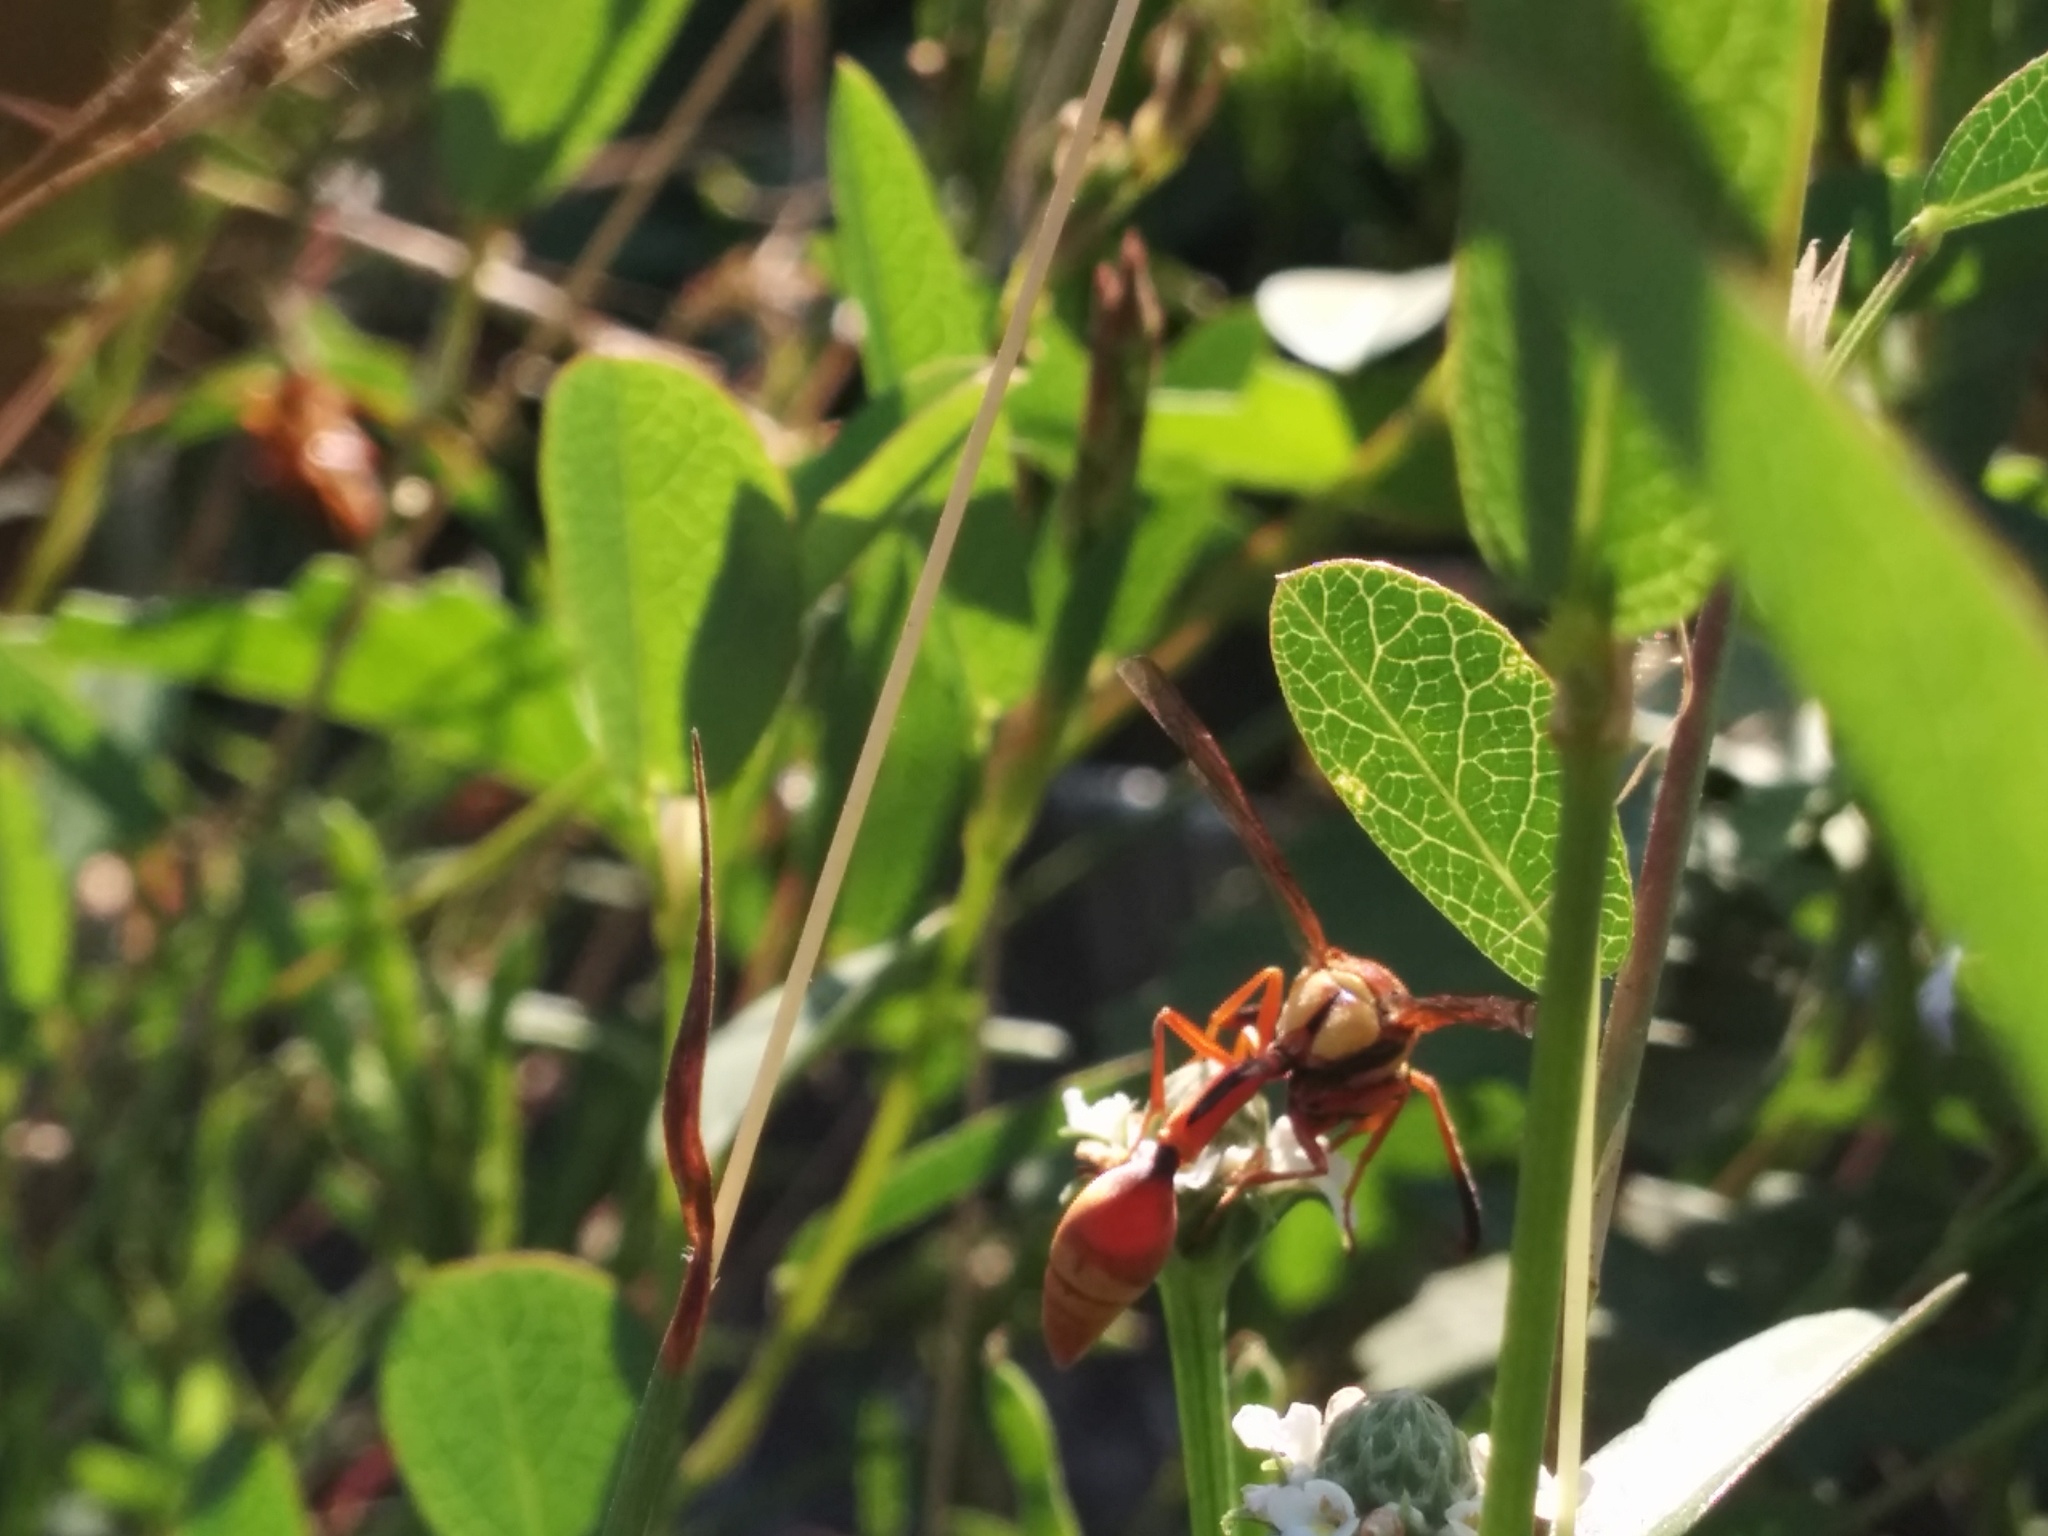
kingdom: Animalia
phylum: Arthropoda
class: Insecta
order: Hymenoptera
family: Eumenidae
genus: Zeta
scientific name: Zeta abdominale
